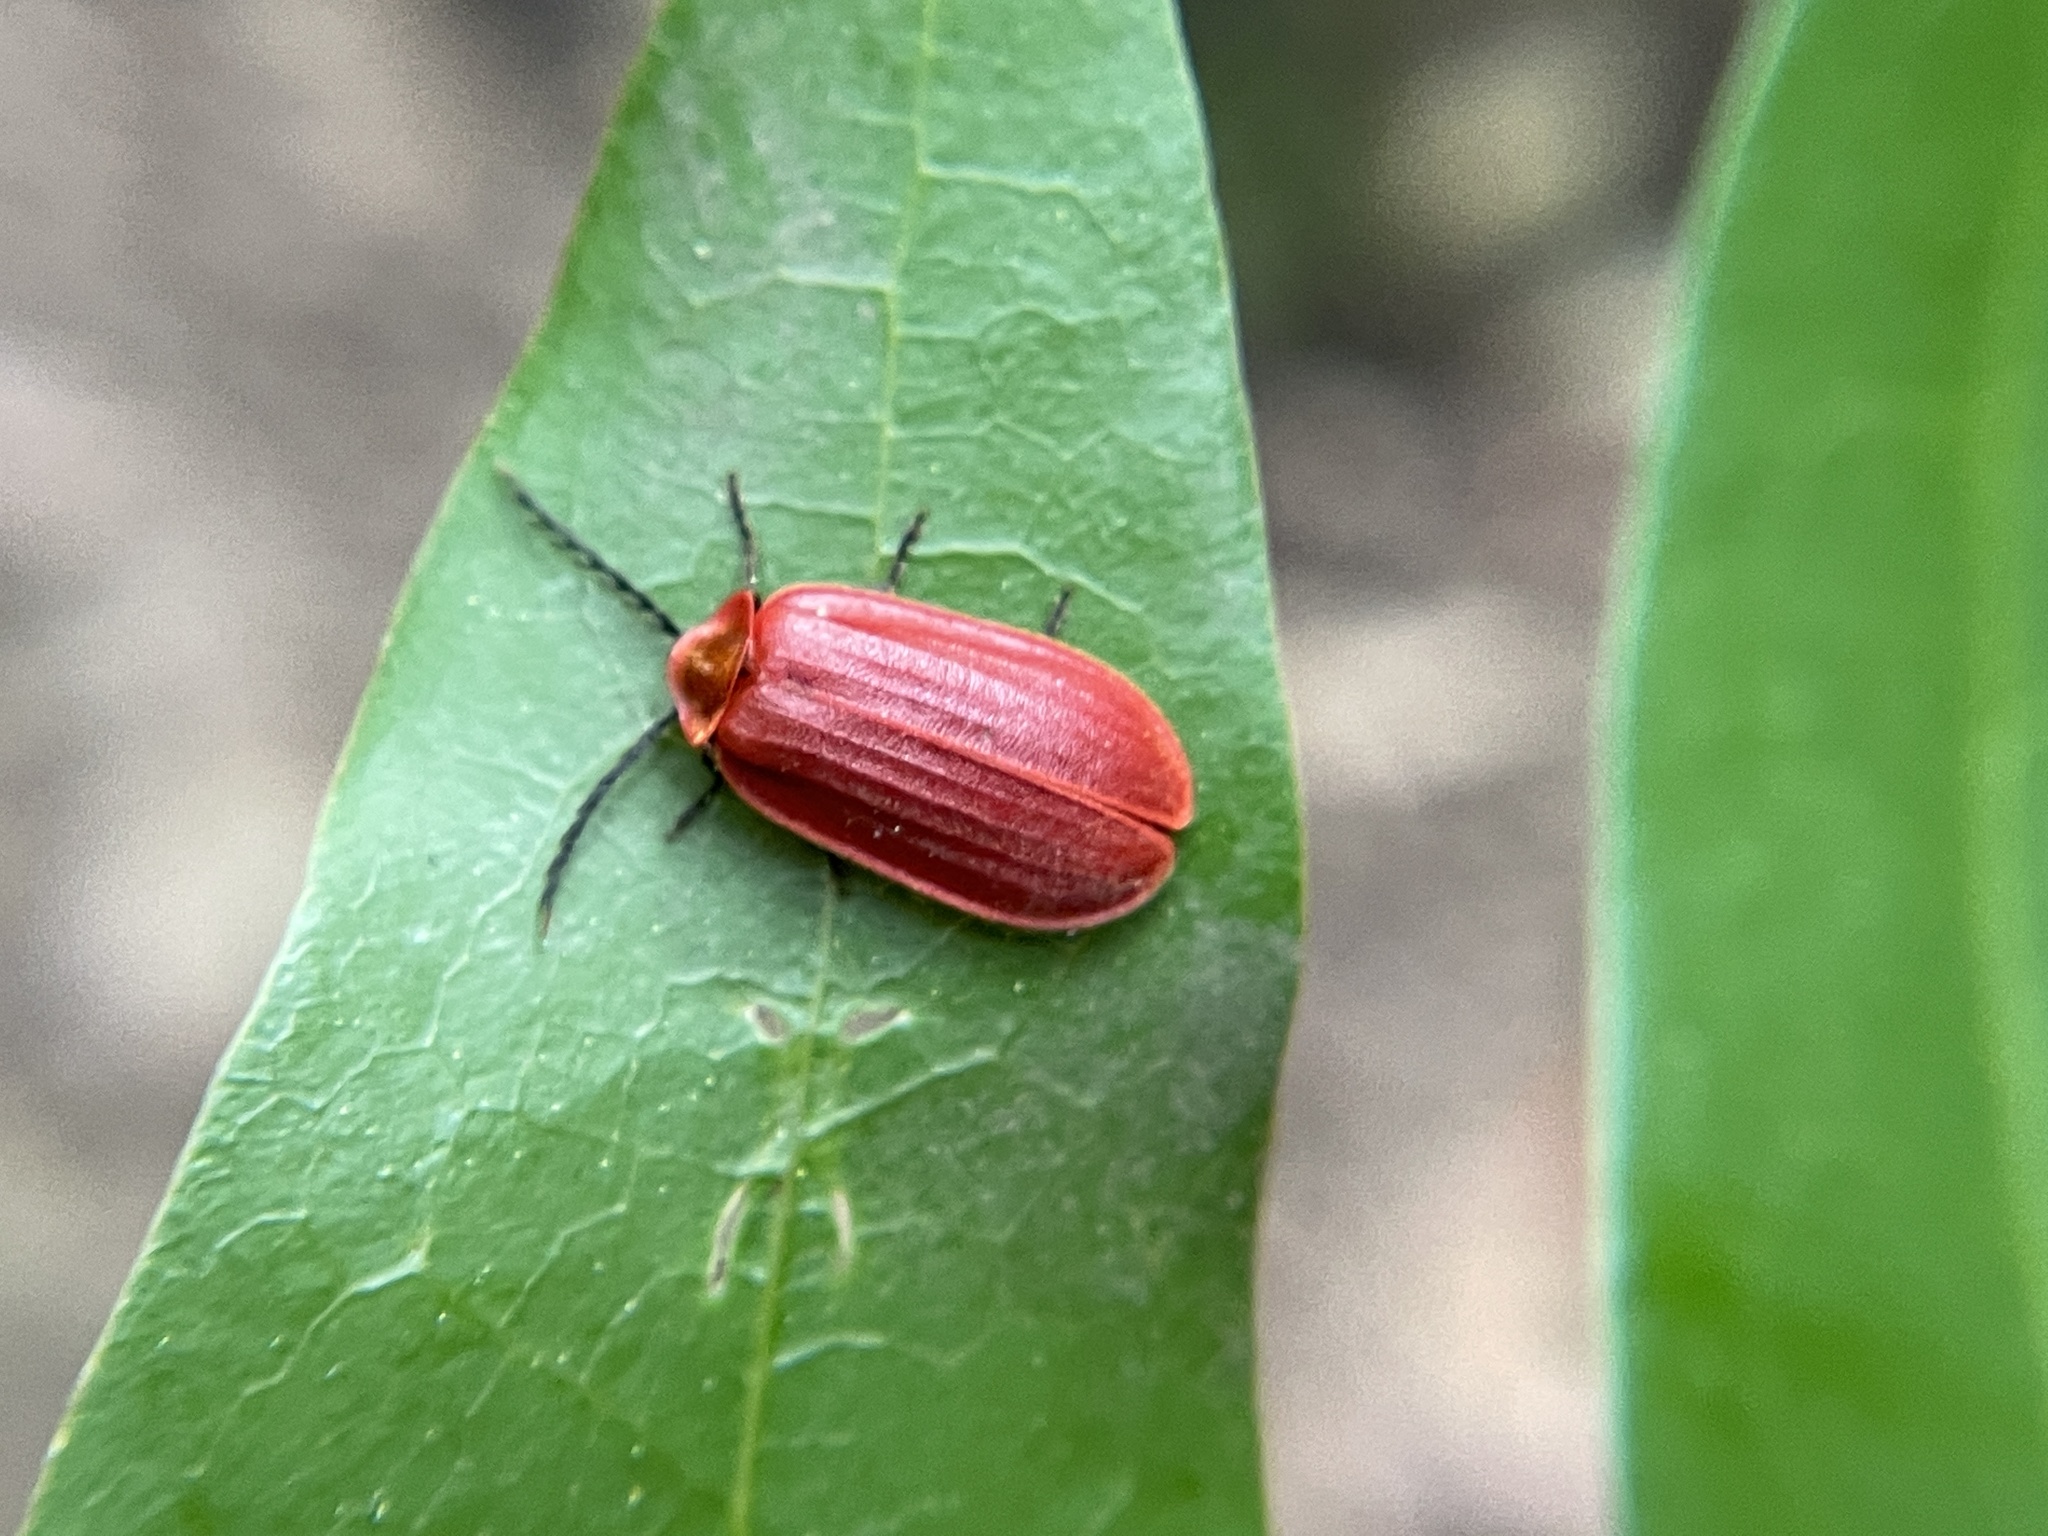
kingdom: Animalia
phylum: Arthropoda
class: Insecta
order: Coleoptera
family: Omethidae
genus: Matheteus
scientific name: Matheteus theveneti
